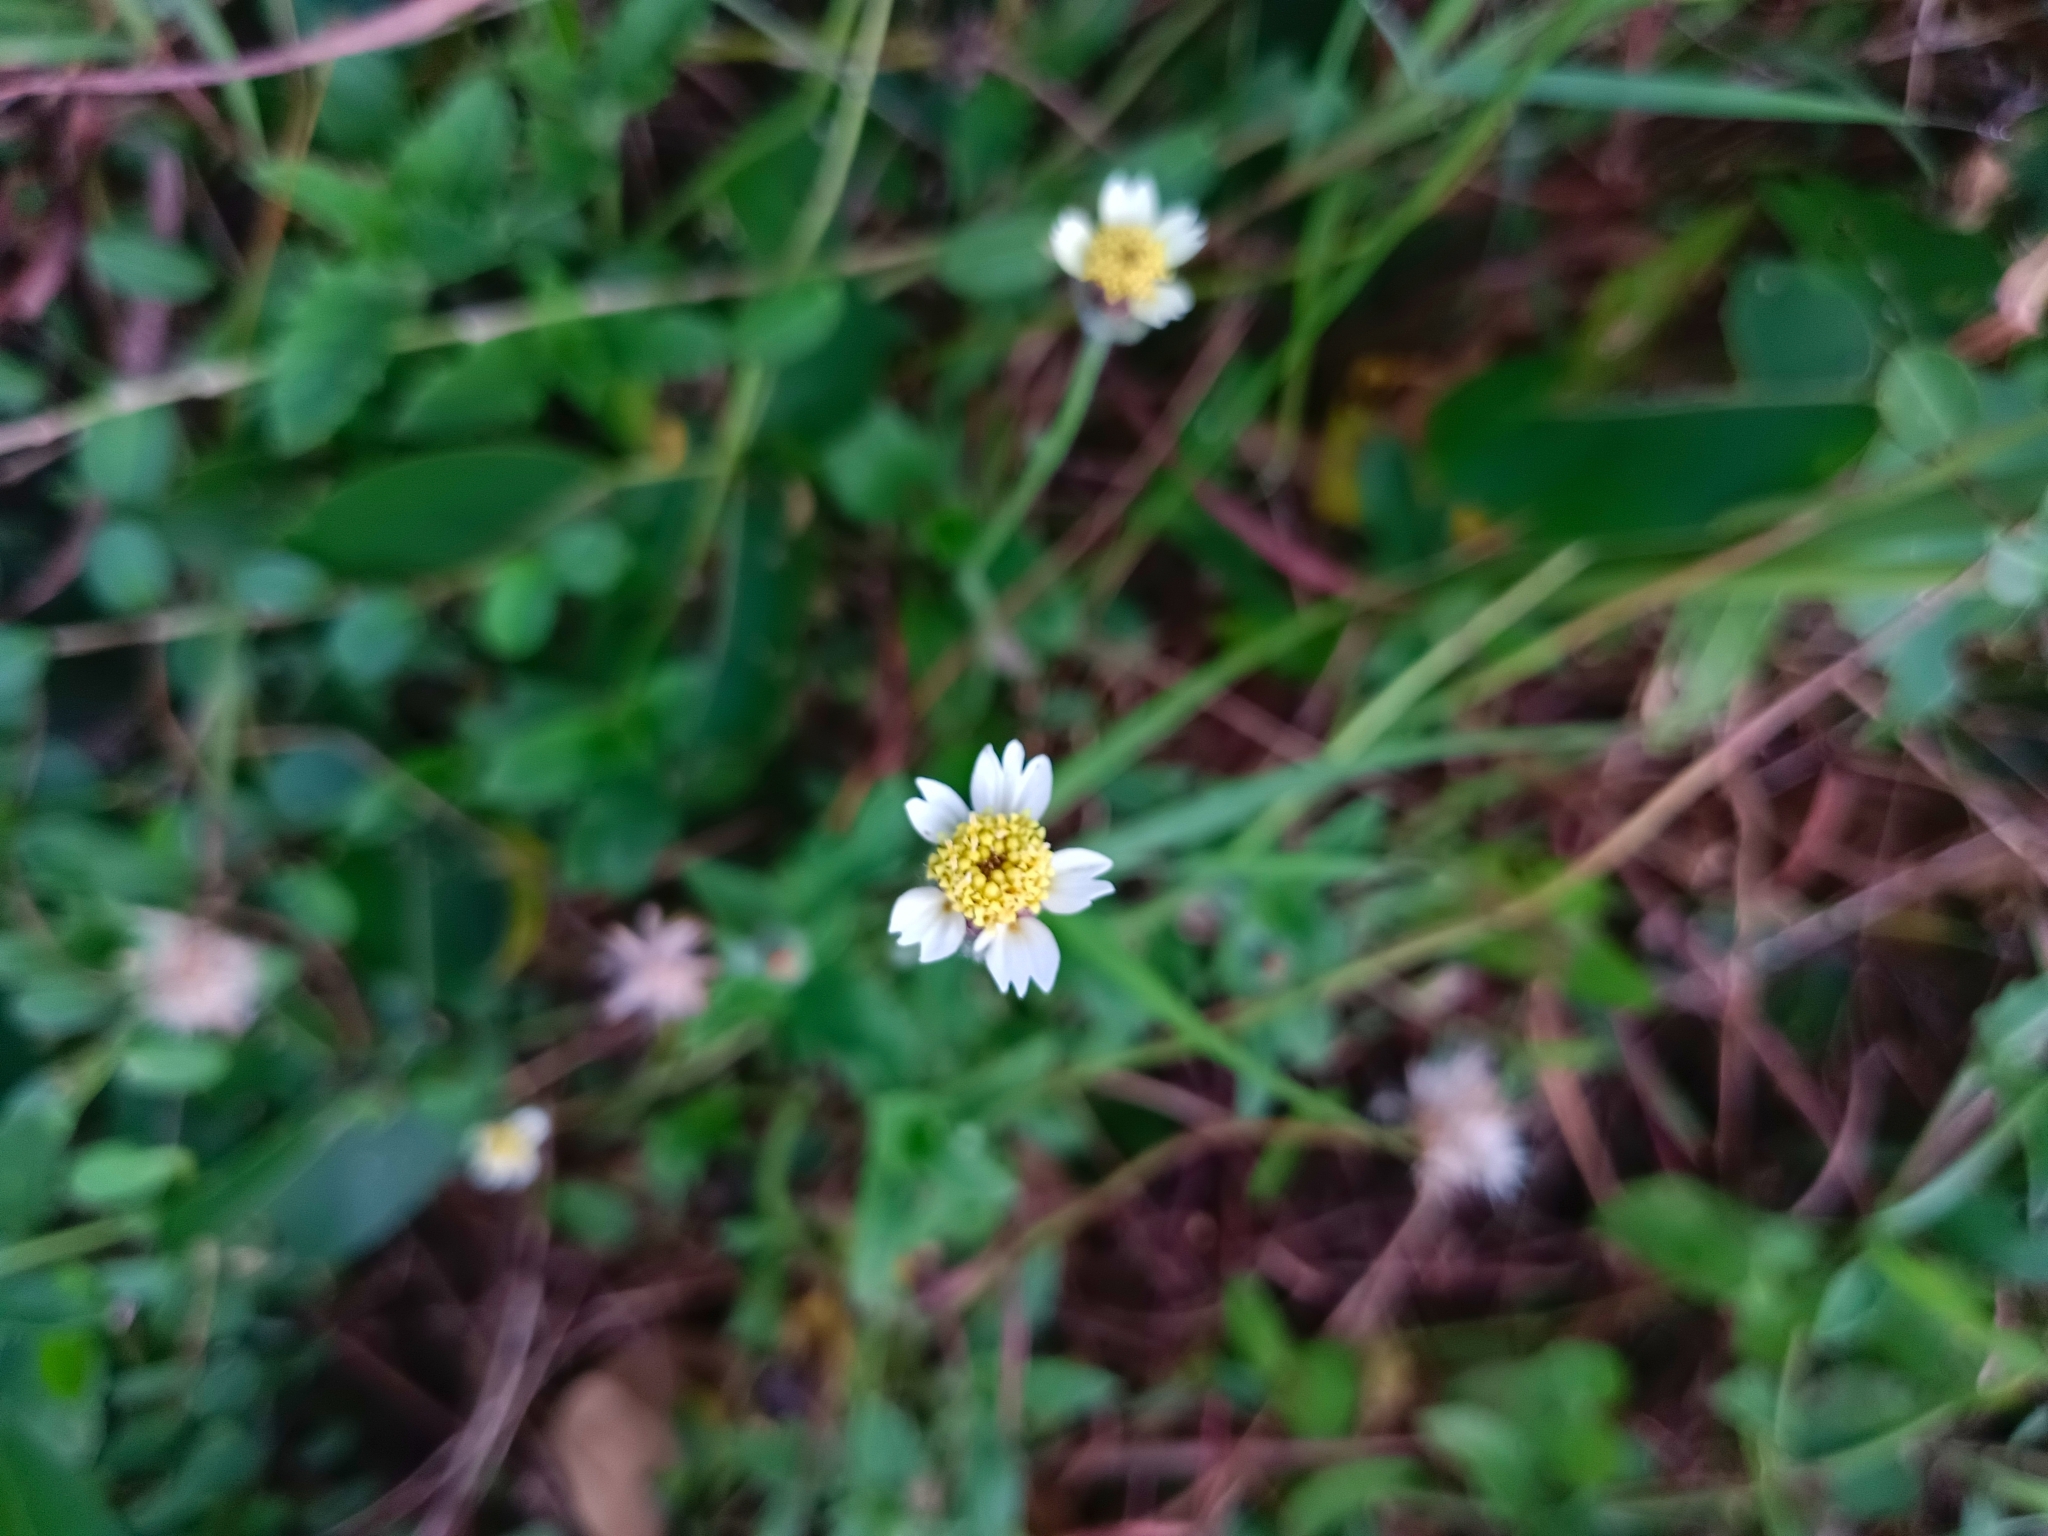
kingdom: Plantae
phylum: Tracheophyta
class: Magnoliopsida
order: Asterales
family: Asteraceae
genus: Tridax
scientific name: Tridax procumbens
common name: Coatbuttons
